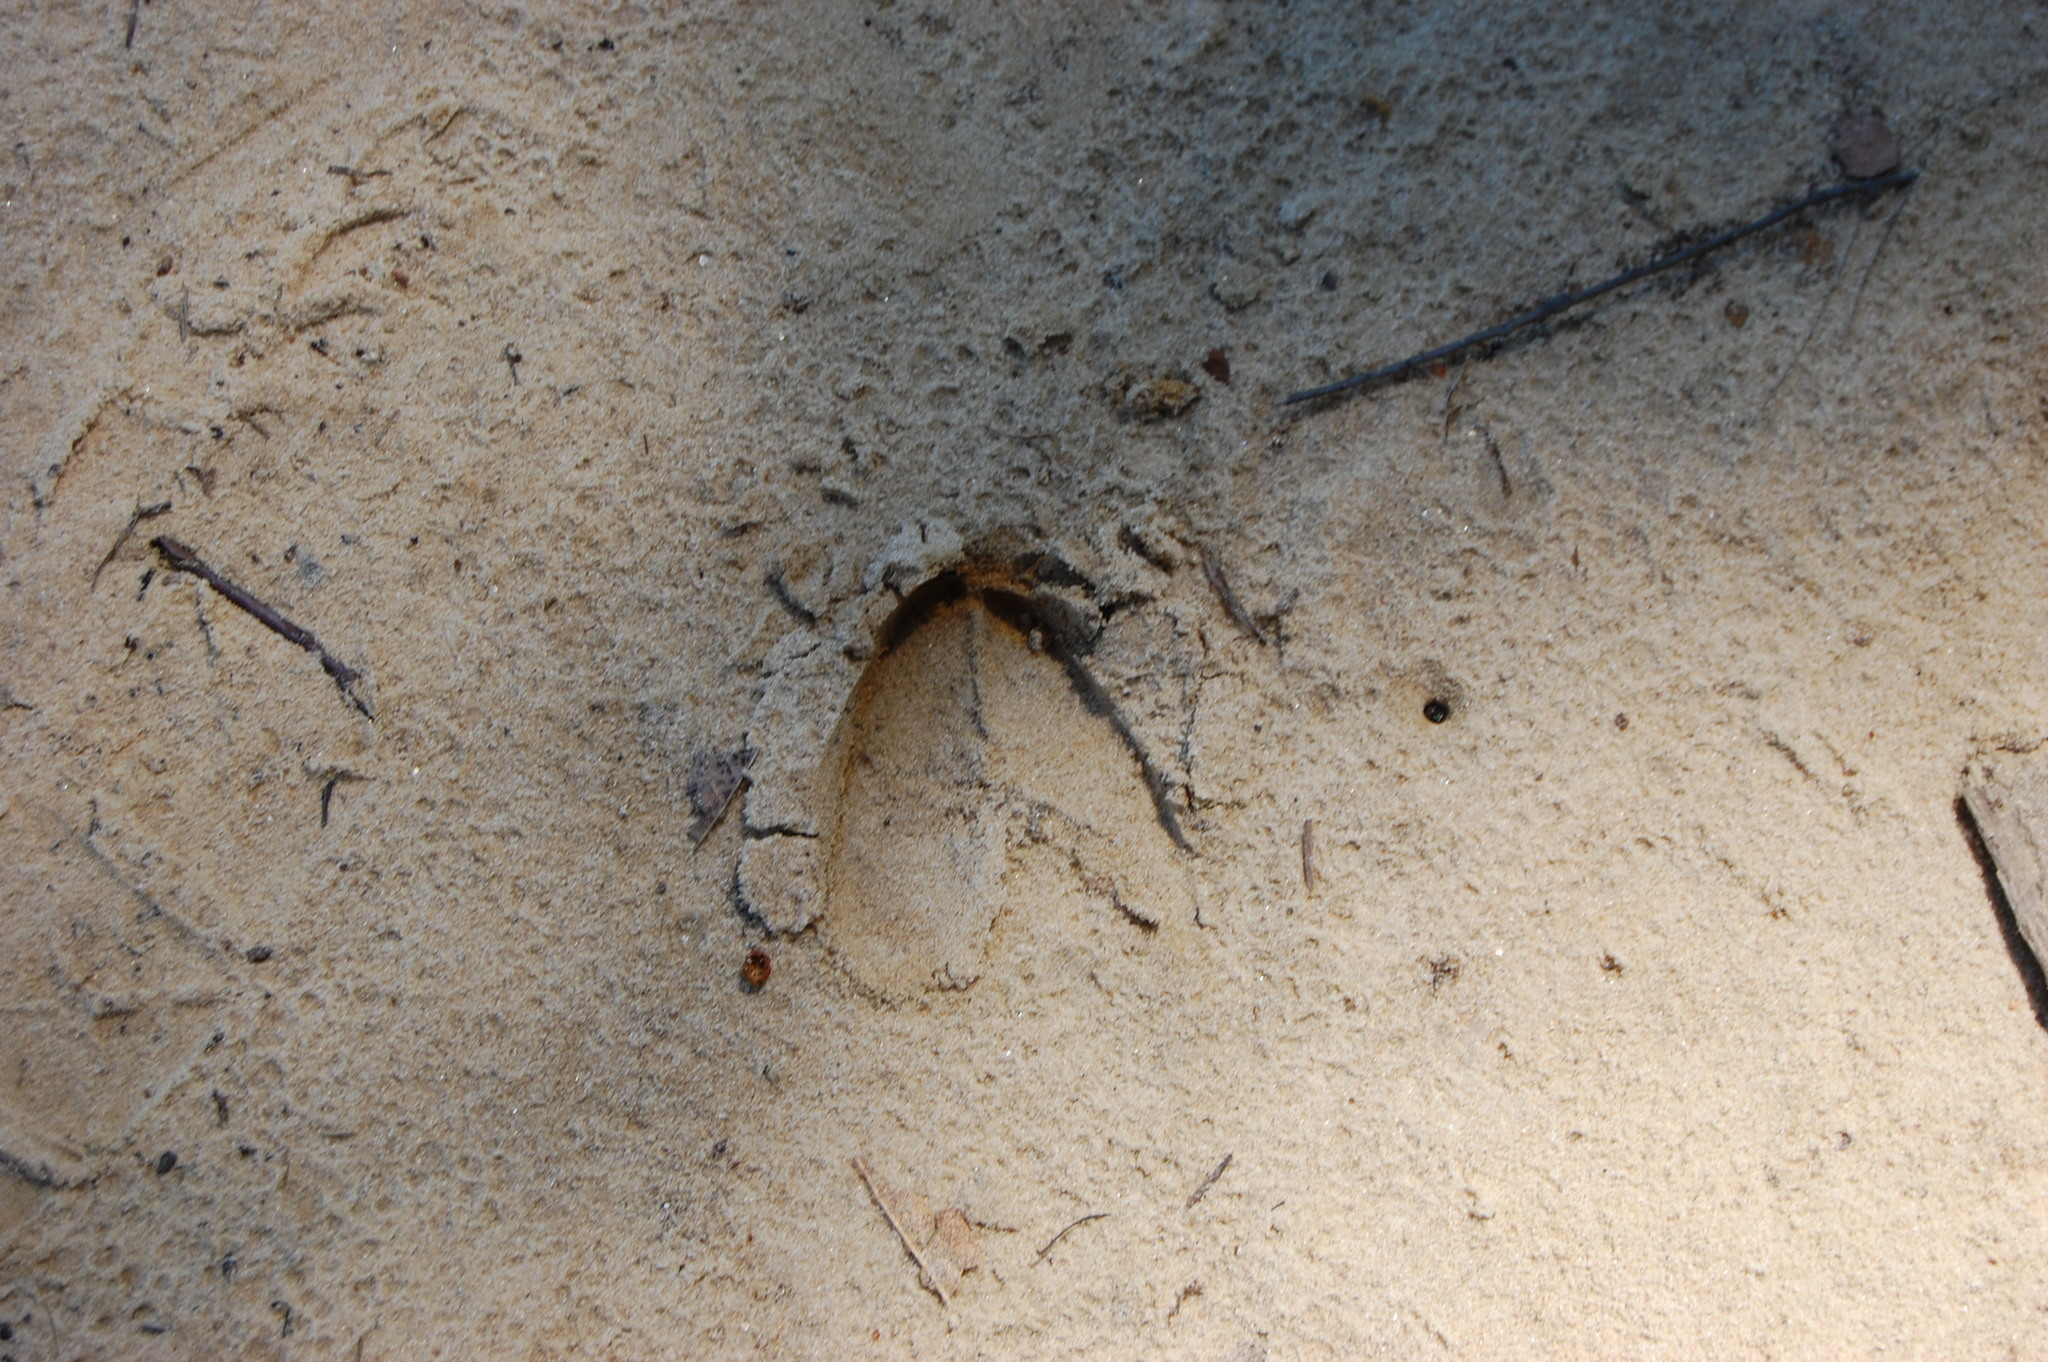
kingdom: Animalia
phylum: Chordata
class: Mammalia
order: Artiodactyla
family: Cervidae
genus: Odocoileus
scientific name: Odocoileus virginianus
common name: White-tailed deer
